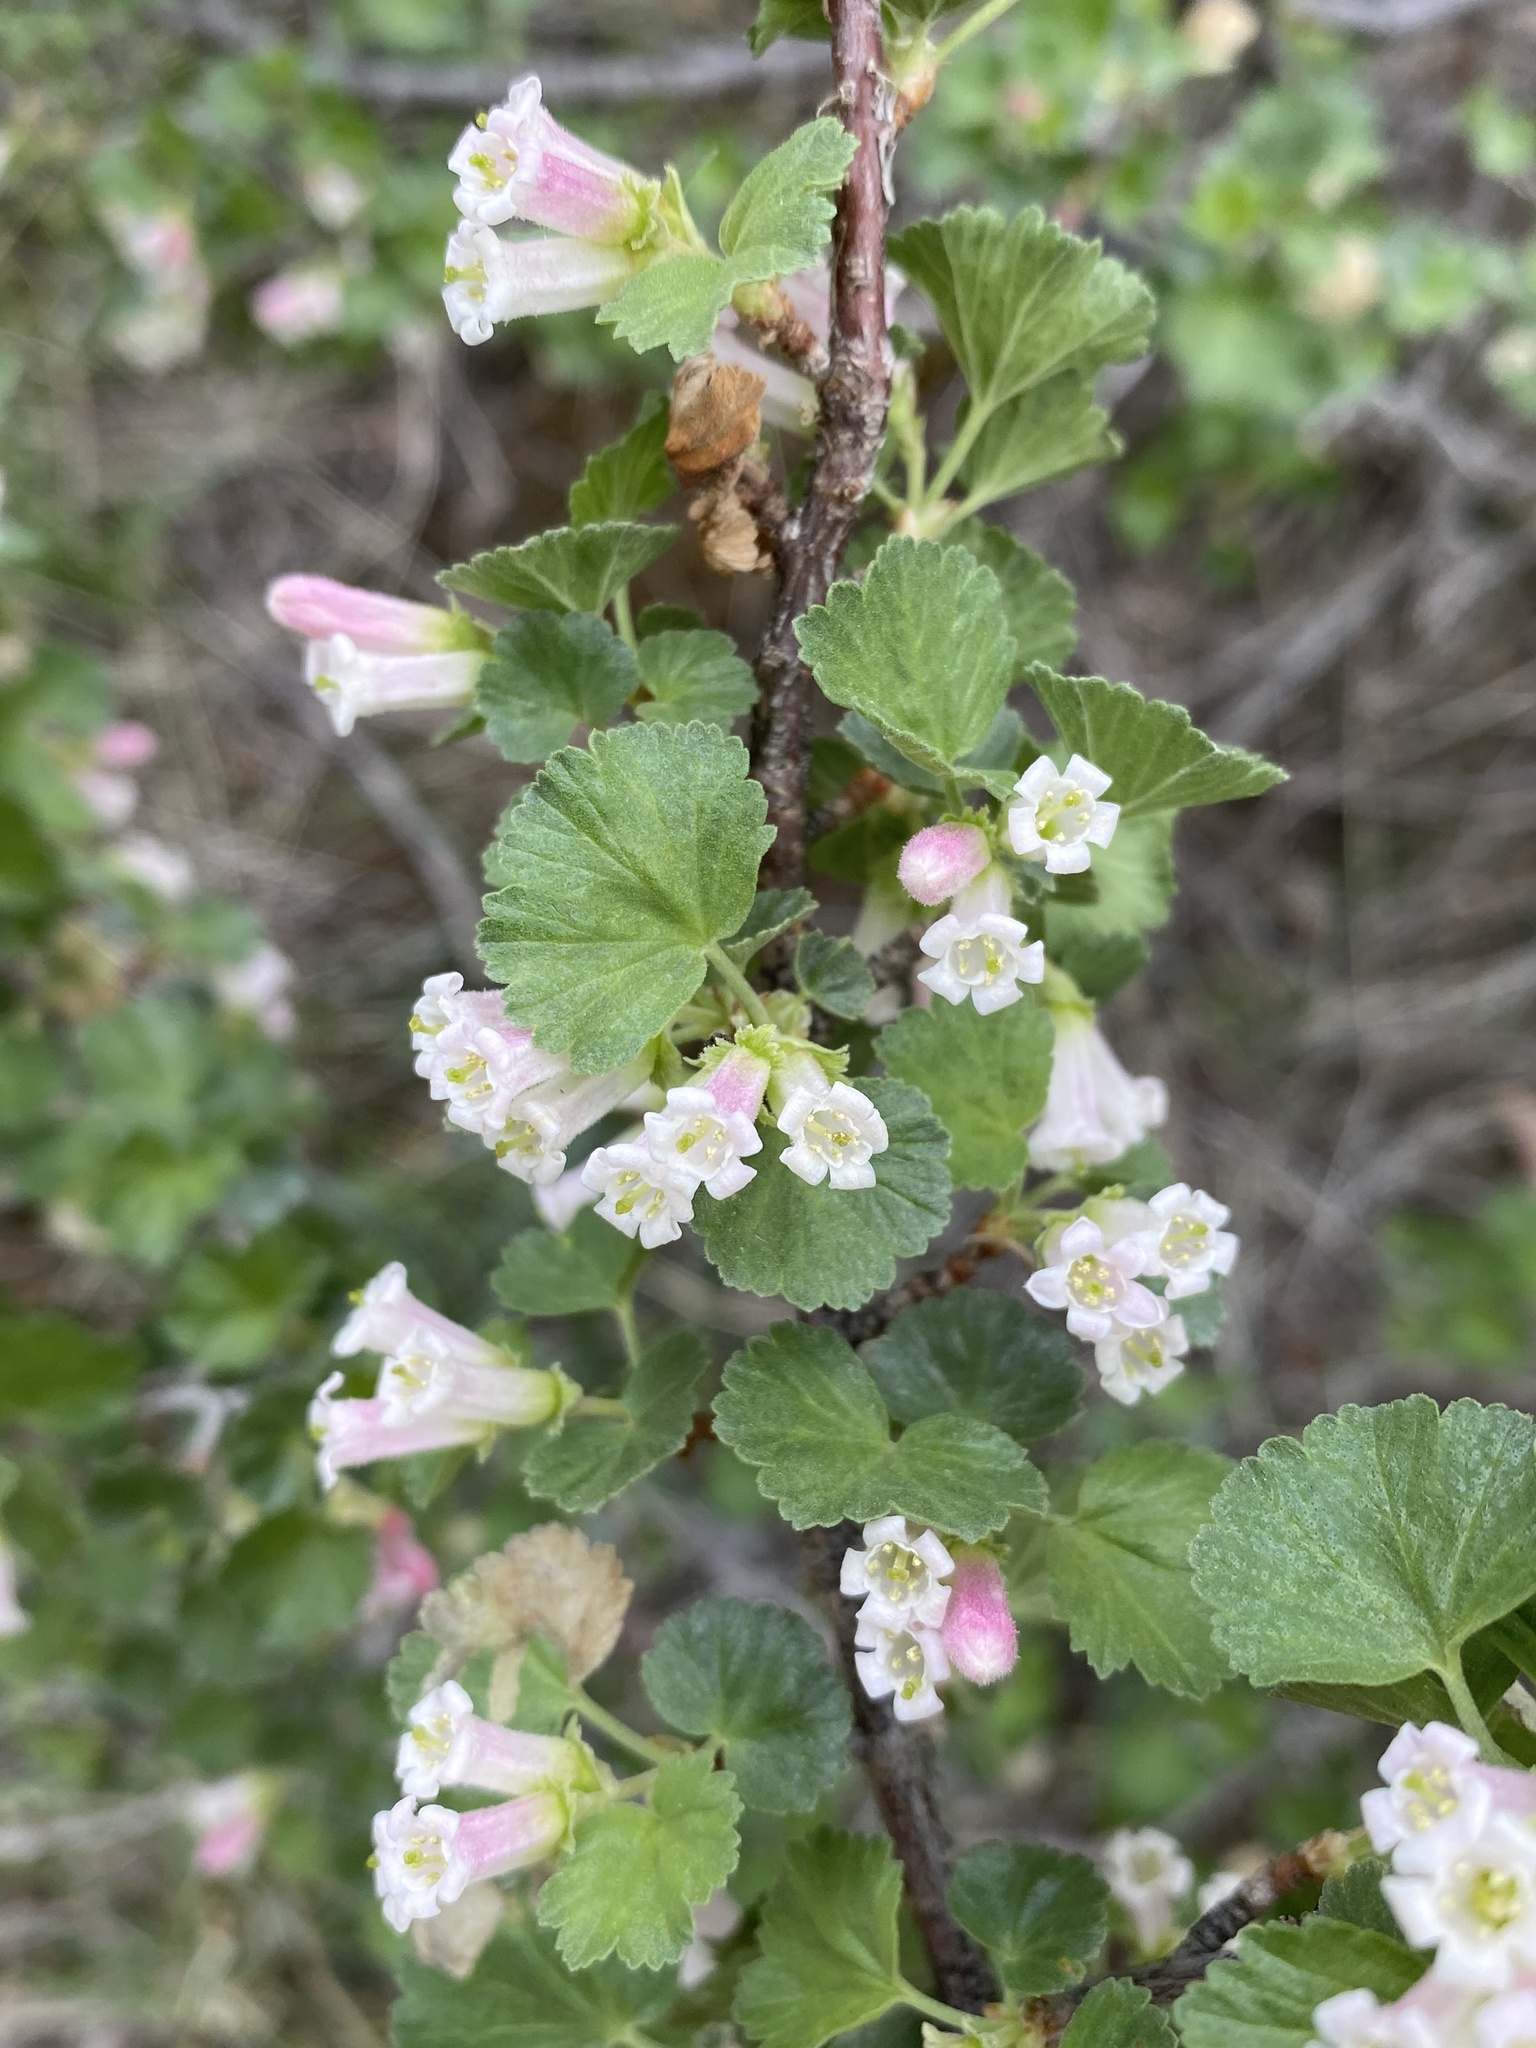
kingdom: Plantae
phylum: Tracheophyta
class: Magnoliopsida
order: Saxifragales
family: Grossulariaceae
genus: Ribes
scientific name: Ribes cereum
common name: Wax currant
